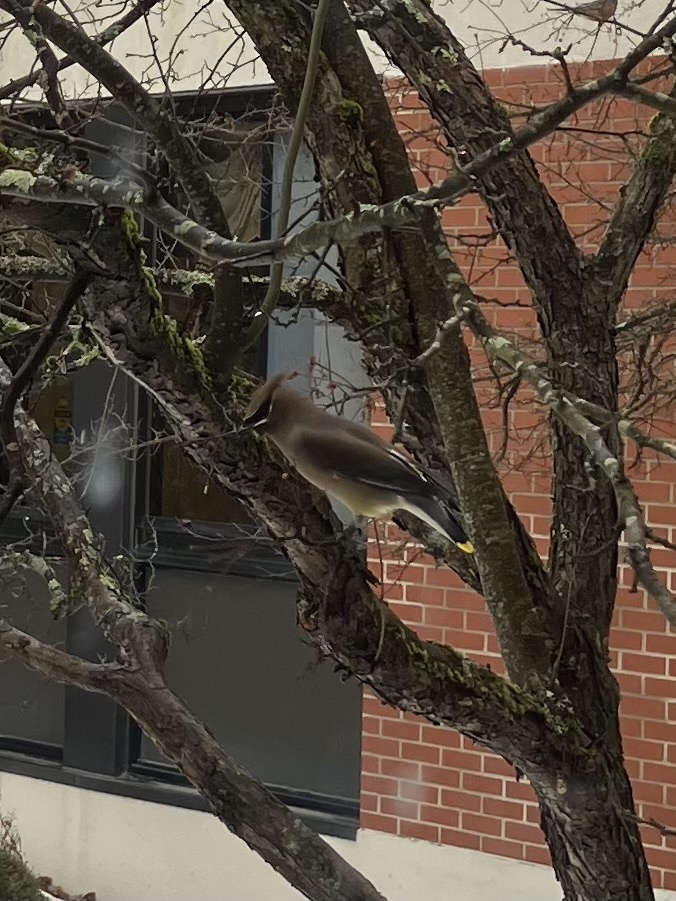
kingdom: Animalia
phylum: Chordata
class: Aves
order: Passeriformes
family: Bombycillidae
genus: Bombycilla
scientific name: Bombycilla cedrorum
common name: Cedar waxwing
